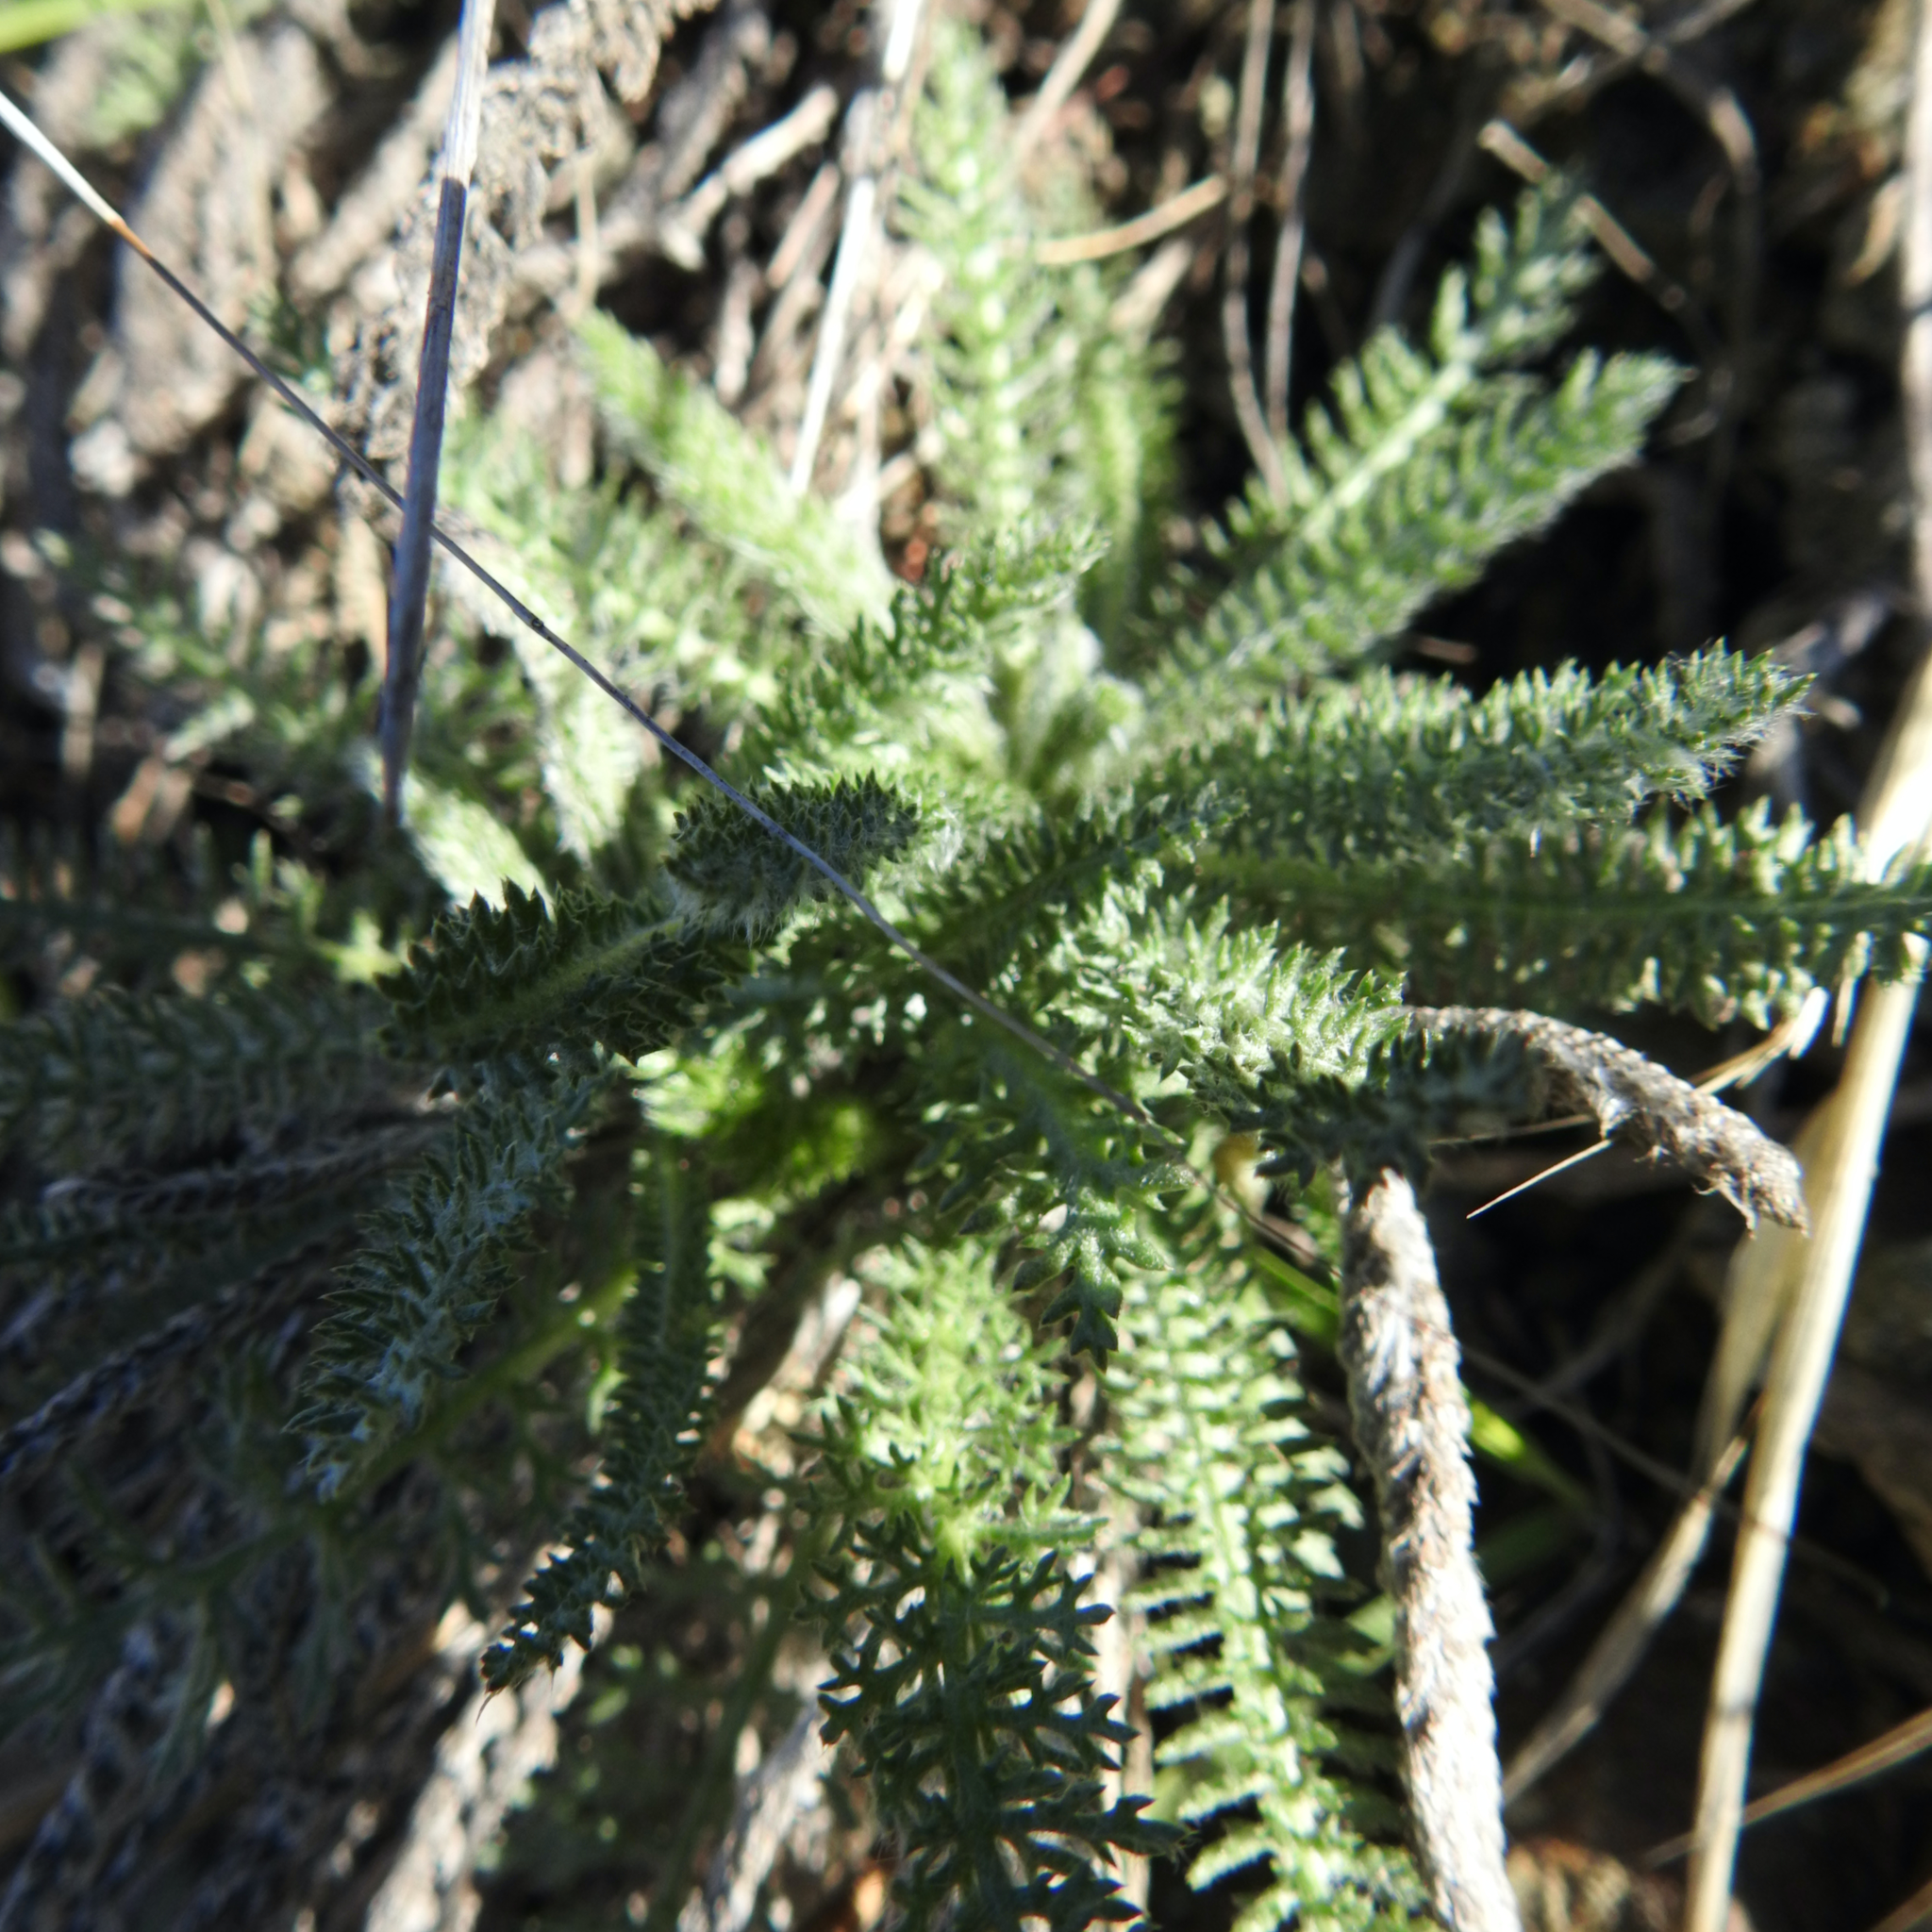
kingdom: Plantae
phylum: Tracheophyta
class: Magnoliopsida
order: Asterales
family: Asteraceae
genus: Achillea
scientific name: Achillea millefolium
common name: Yarrow
